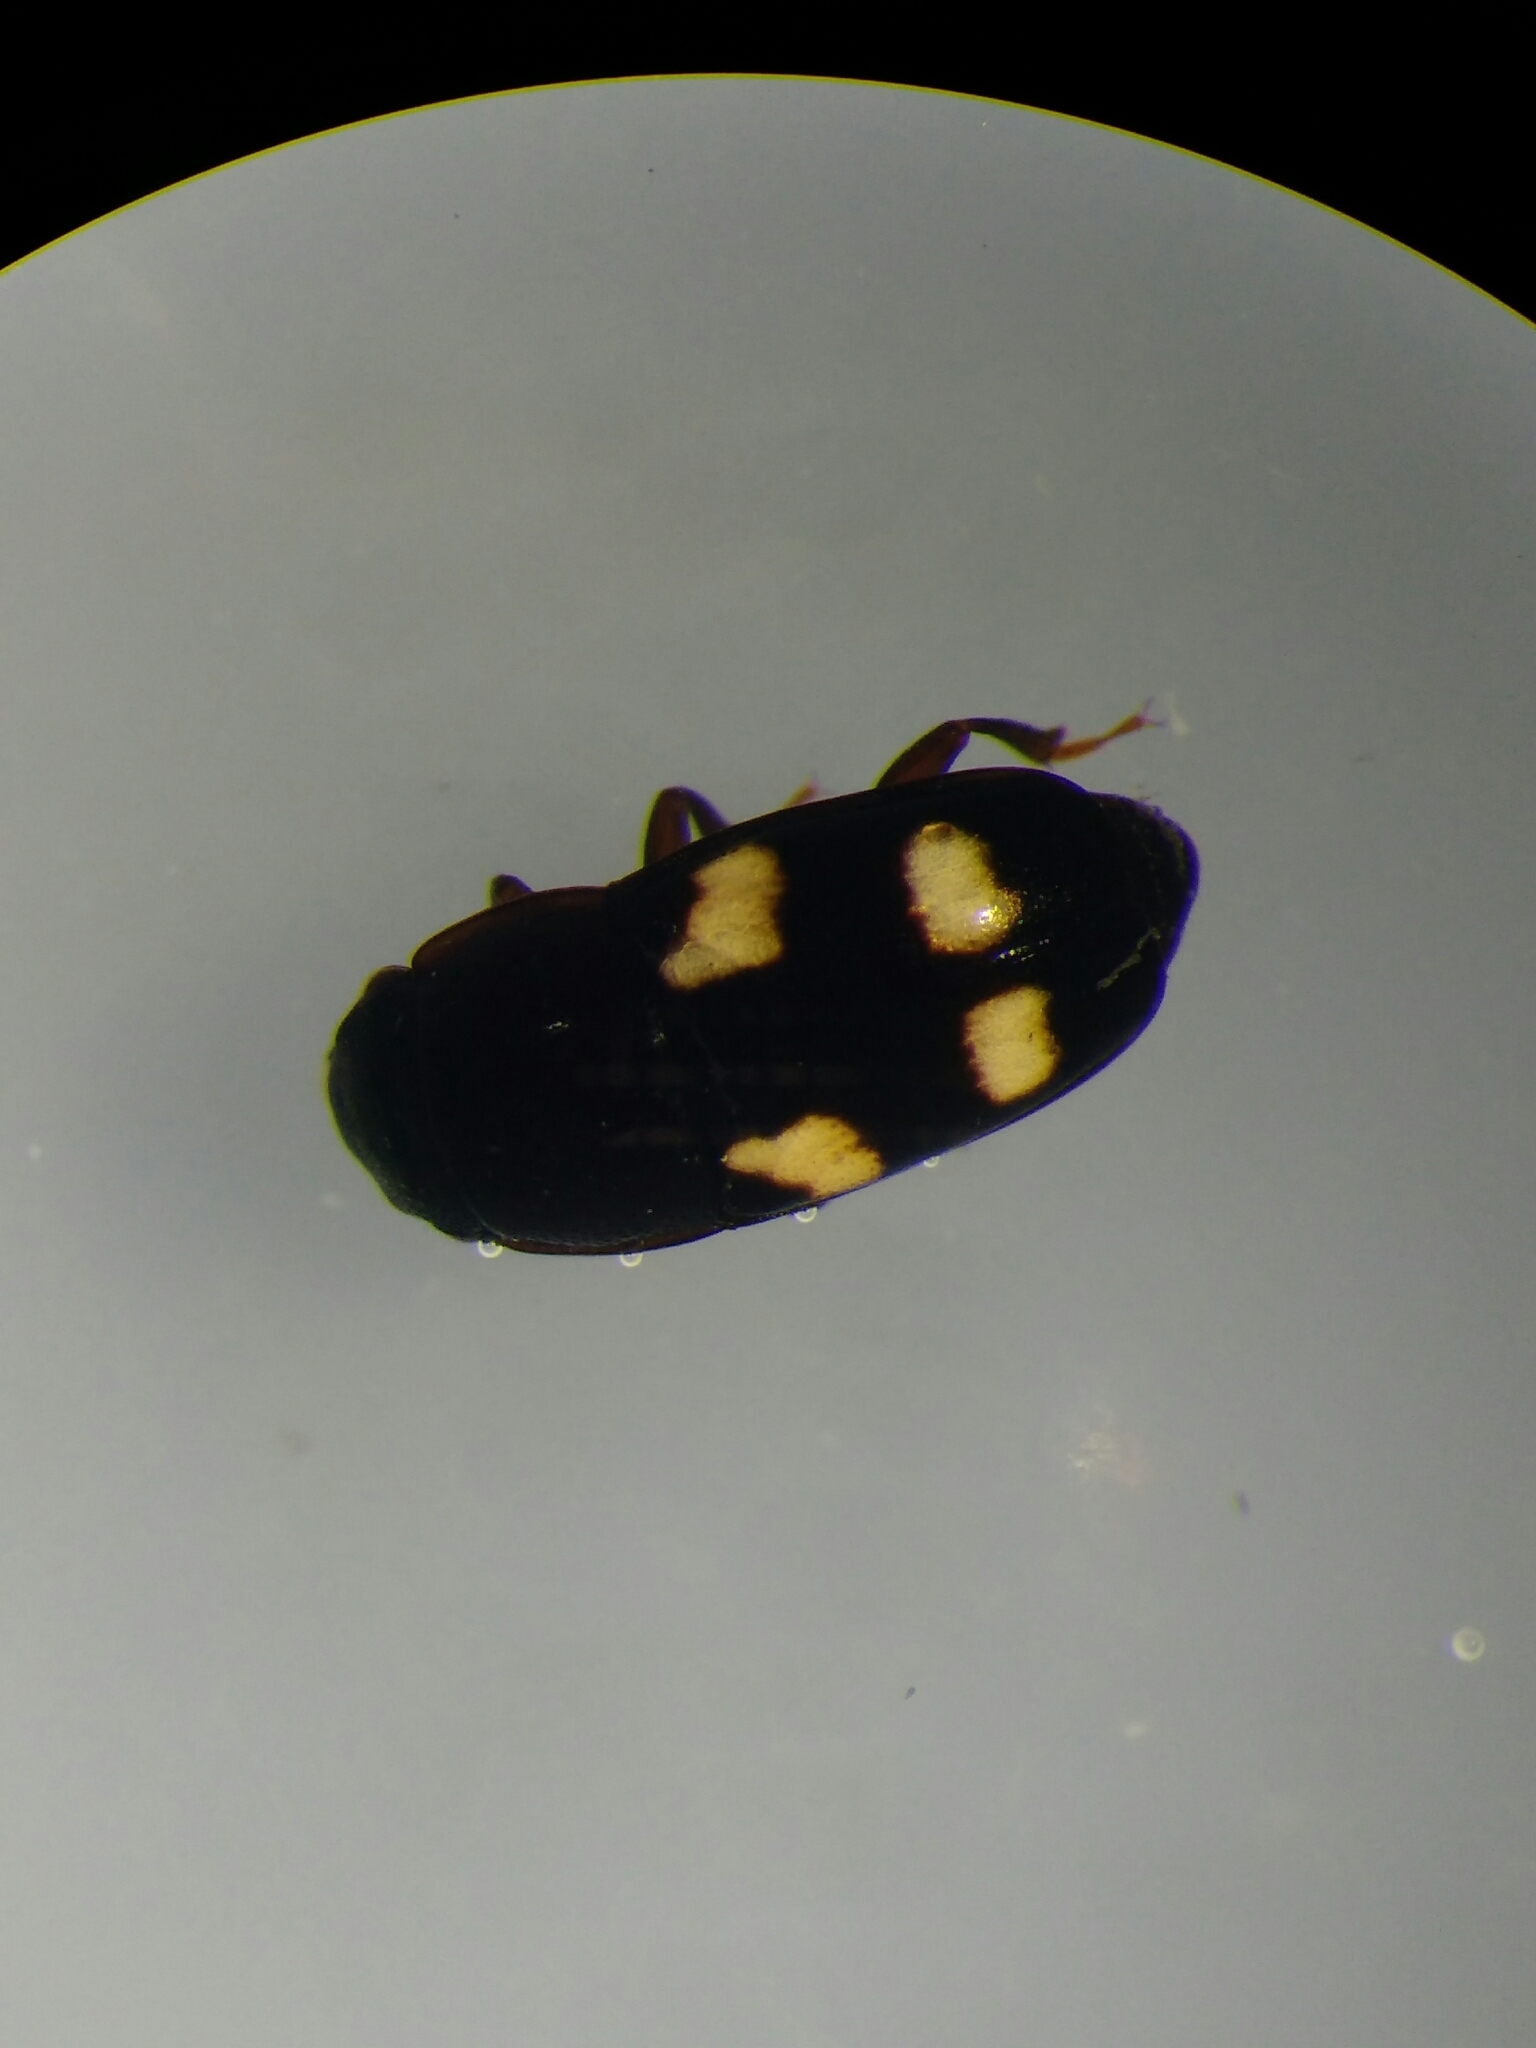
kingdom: Animalia
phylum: Arthropoda
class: Insecta
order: Coleoptera
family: Nitidulidae
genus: Glischrochilus
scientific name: Glischrochilus quadrisignatus
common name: Picnic beetle
